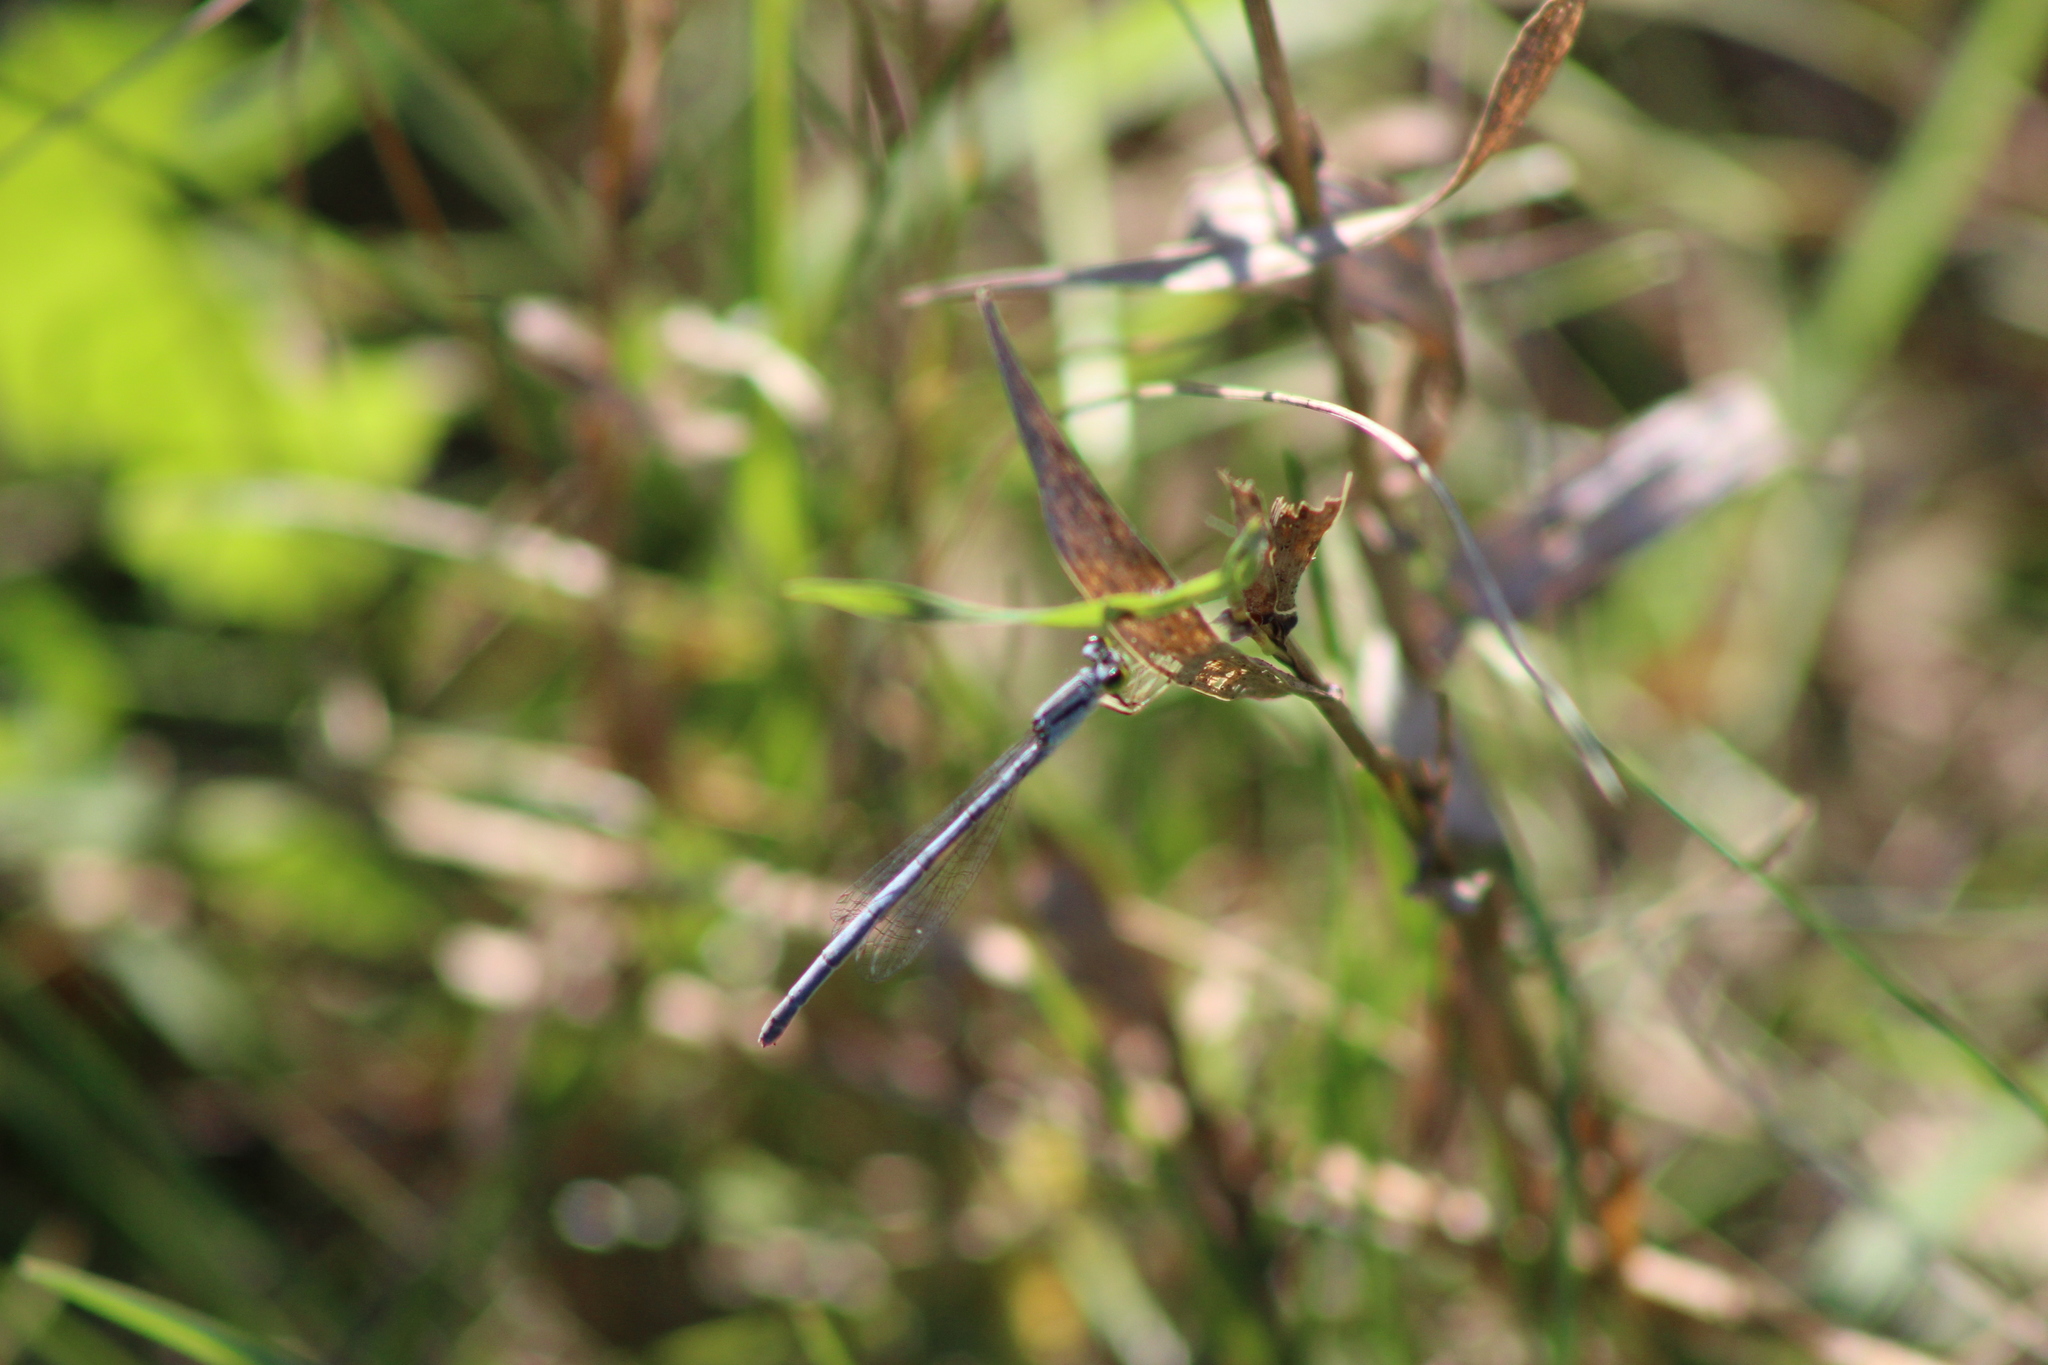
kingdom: Animalia
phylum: Arthropoda
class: Insecta
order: Odonata
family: Coenagrionidae
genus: Ischnura
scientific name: Ischnura verticalis
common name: Eastern forktail
